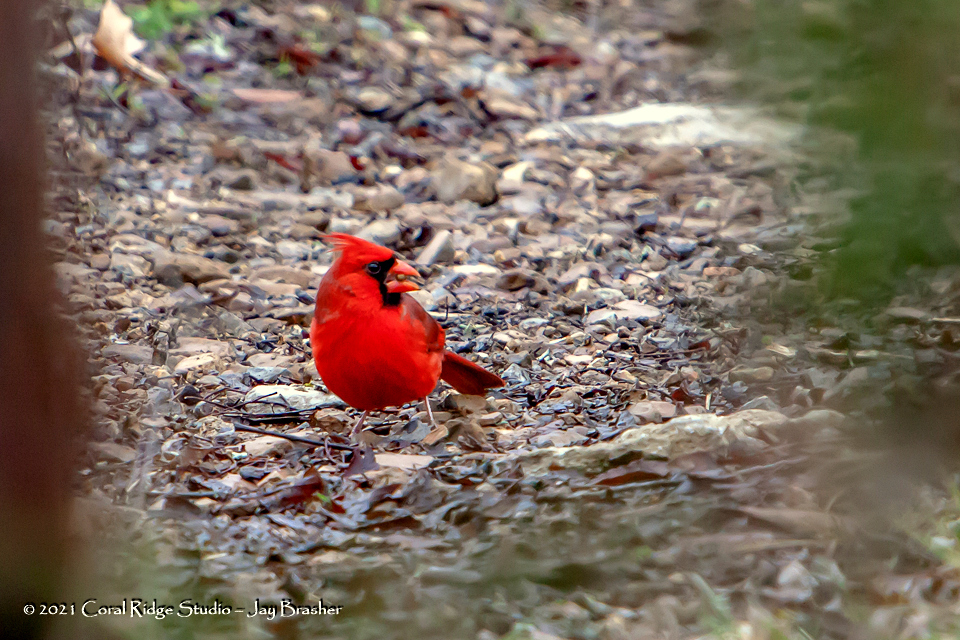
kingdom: Animalia
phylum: Chordata
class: Aves
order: Passeriformes
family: Cardinalidae
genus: Cardinalis
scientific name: Cardinalis cardinalis
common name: Northern cardinal
